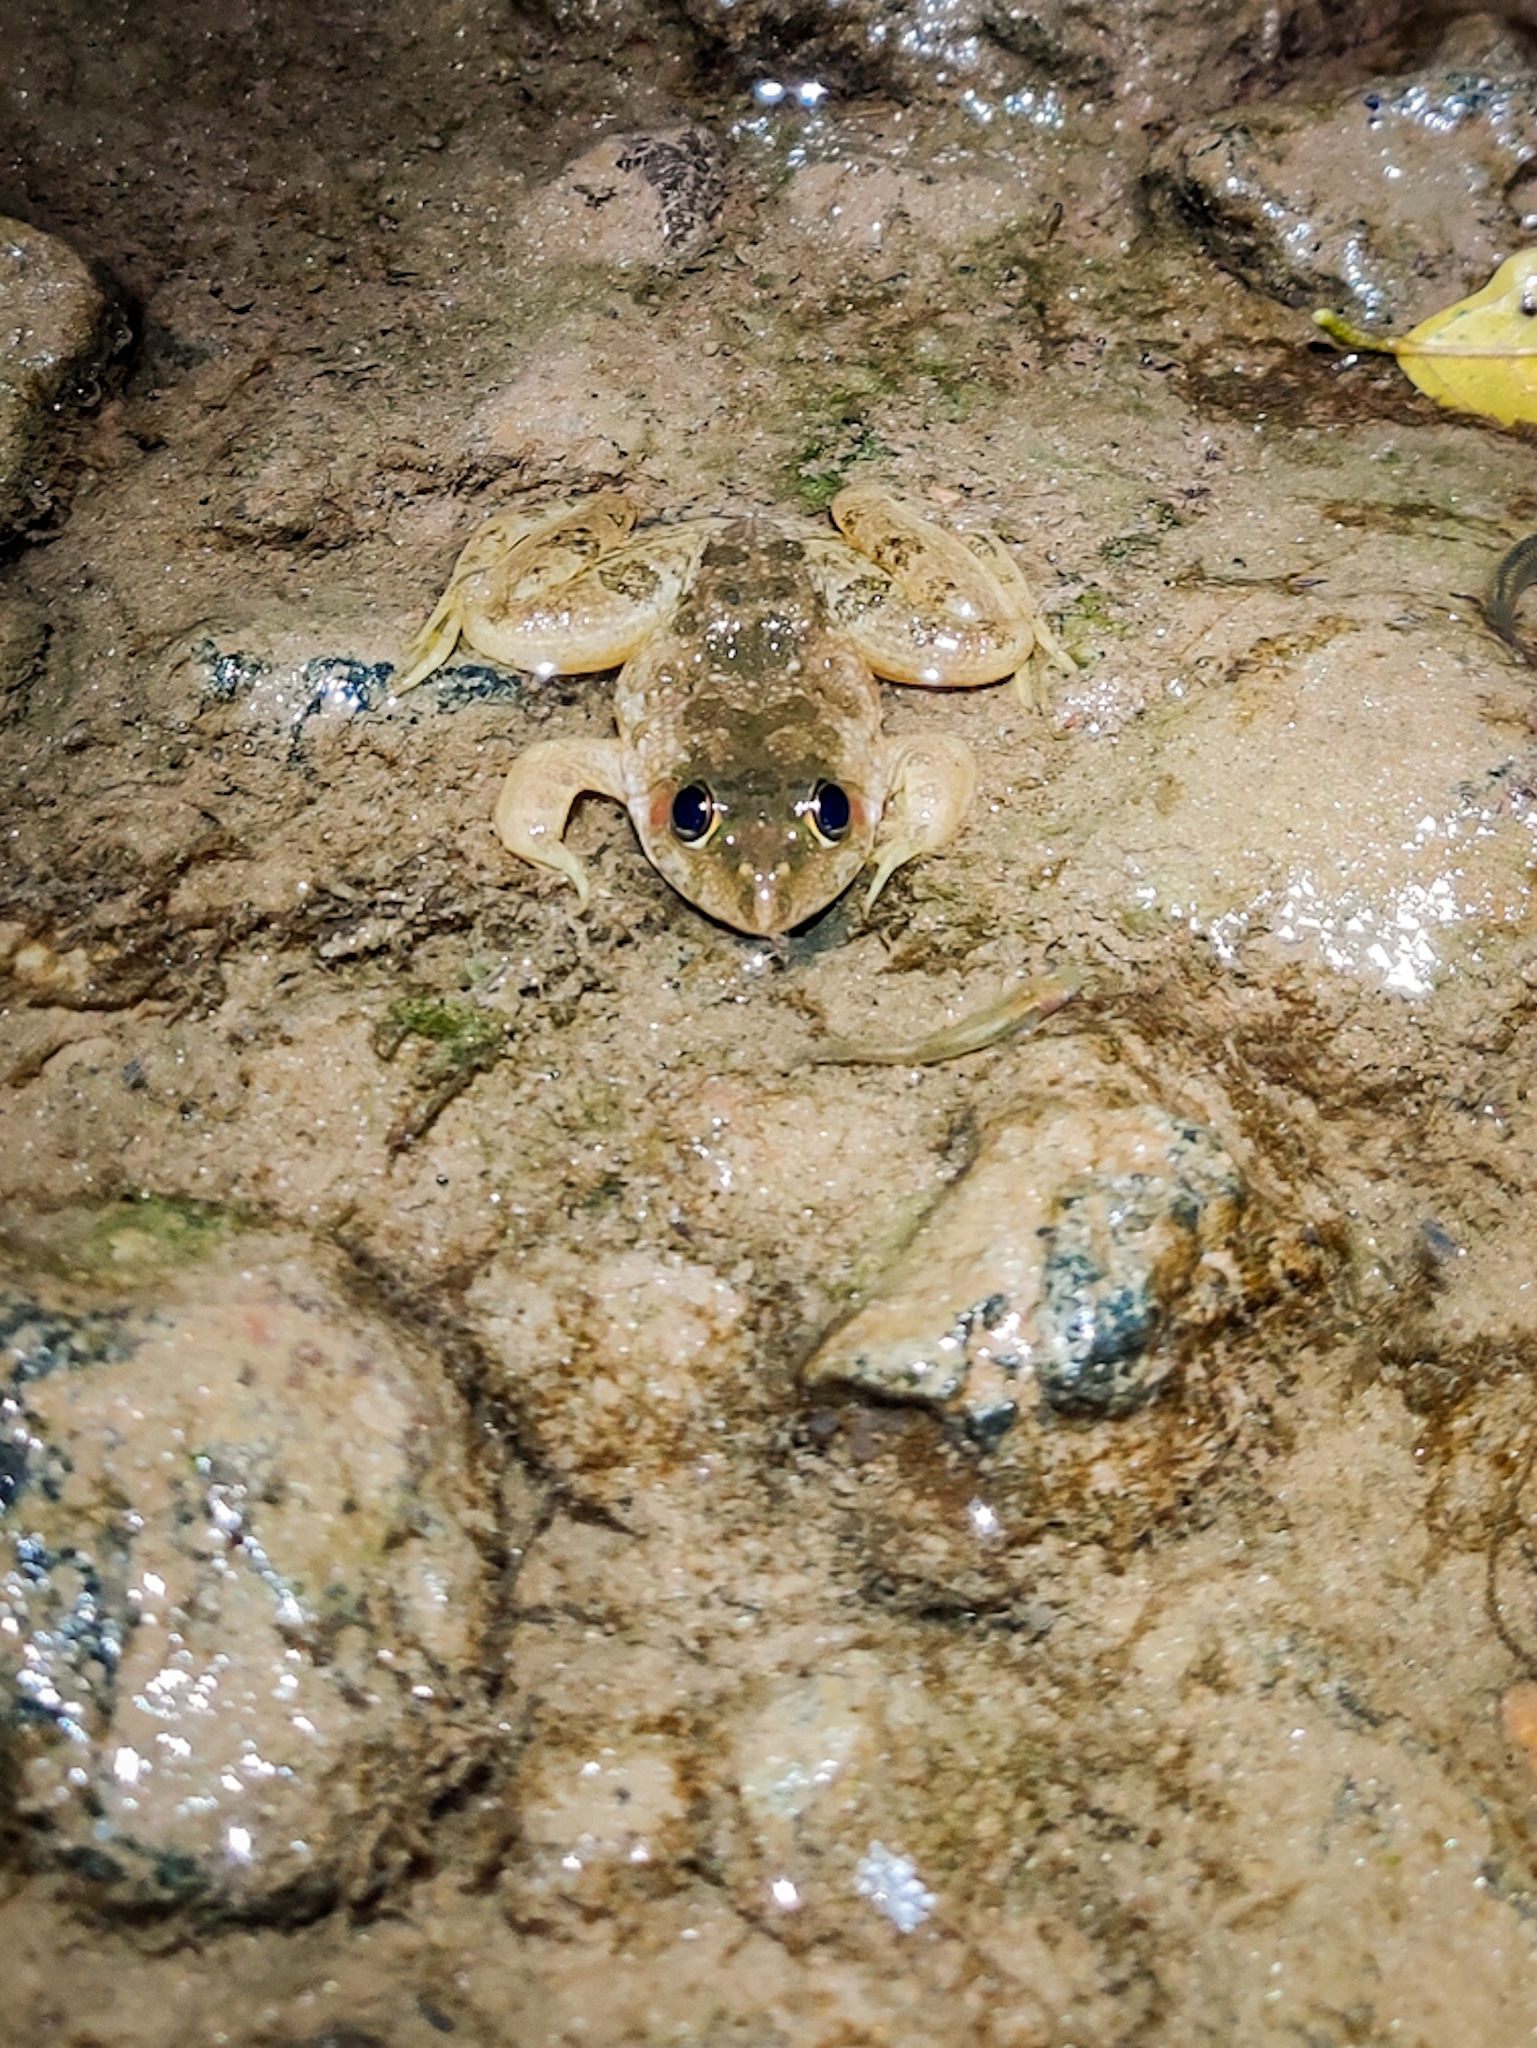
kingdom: Animalia
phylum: Chordata
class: Amphibia
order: Anura
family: Dicroglossidae
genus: Euphlyctis
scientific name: Euphlyctis cyanophlyctis
